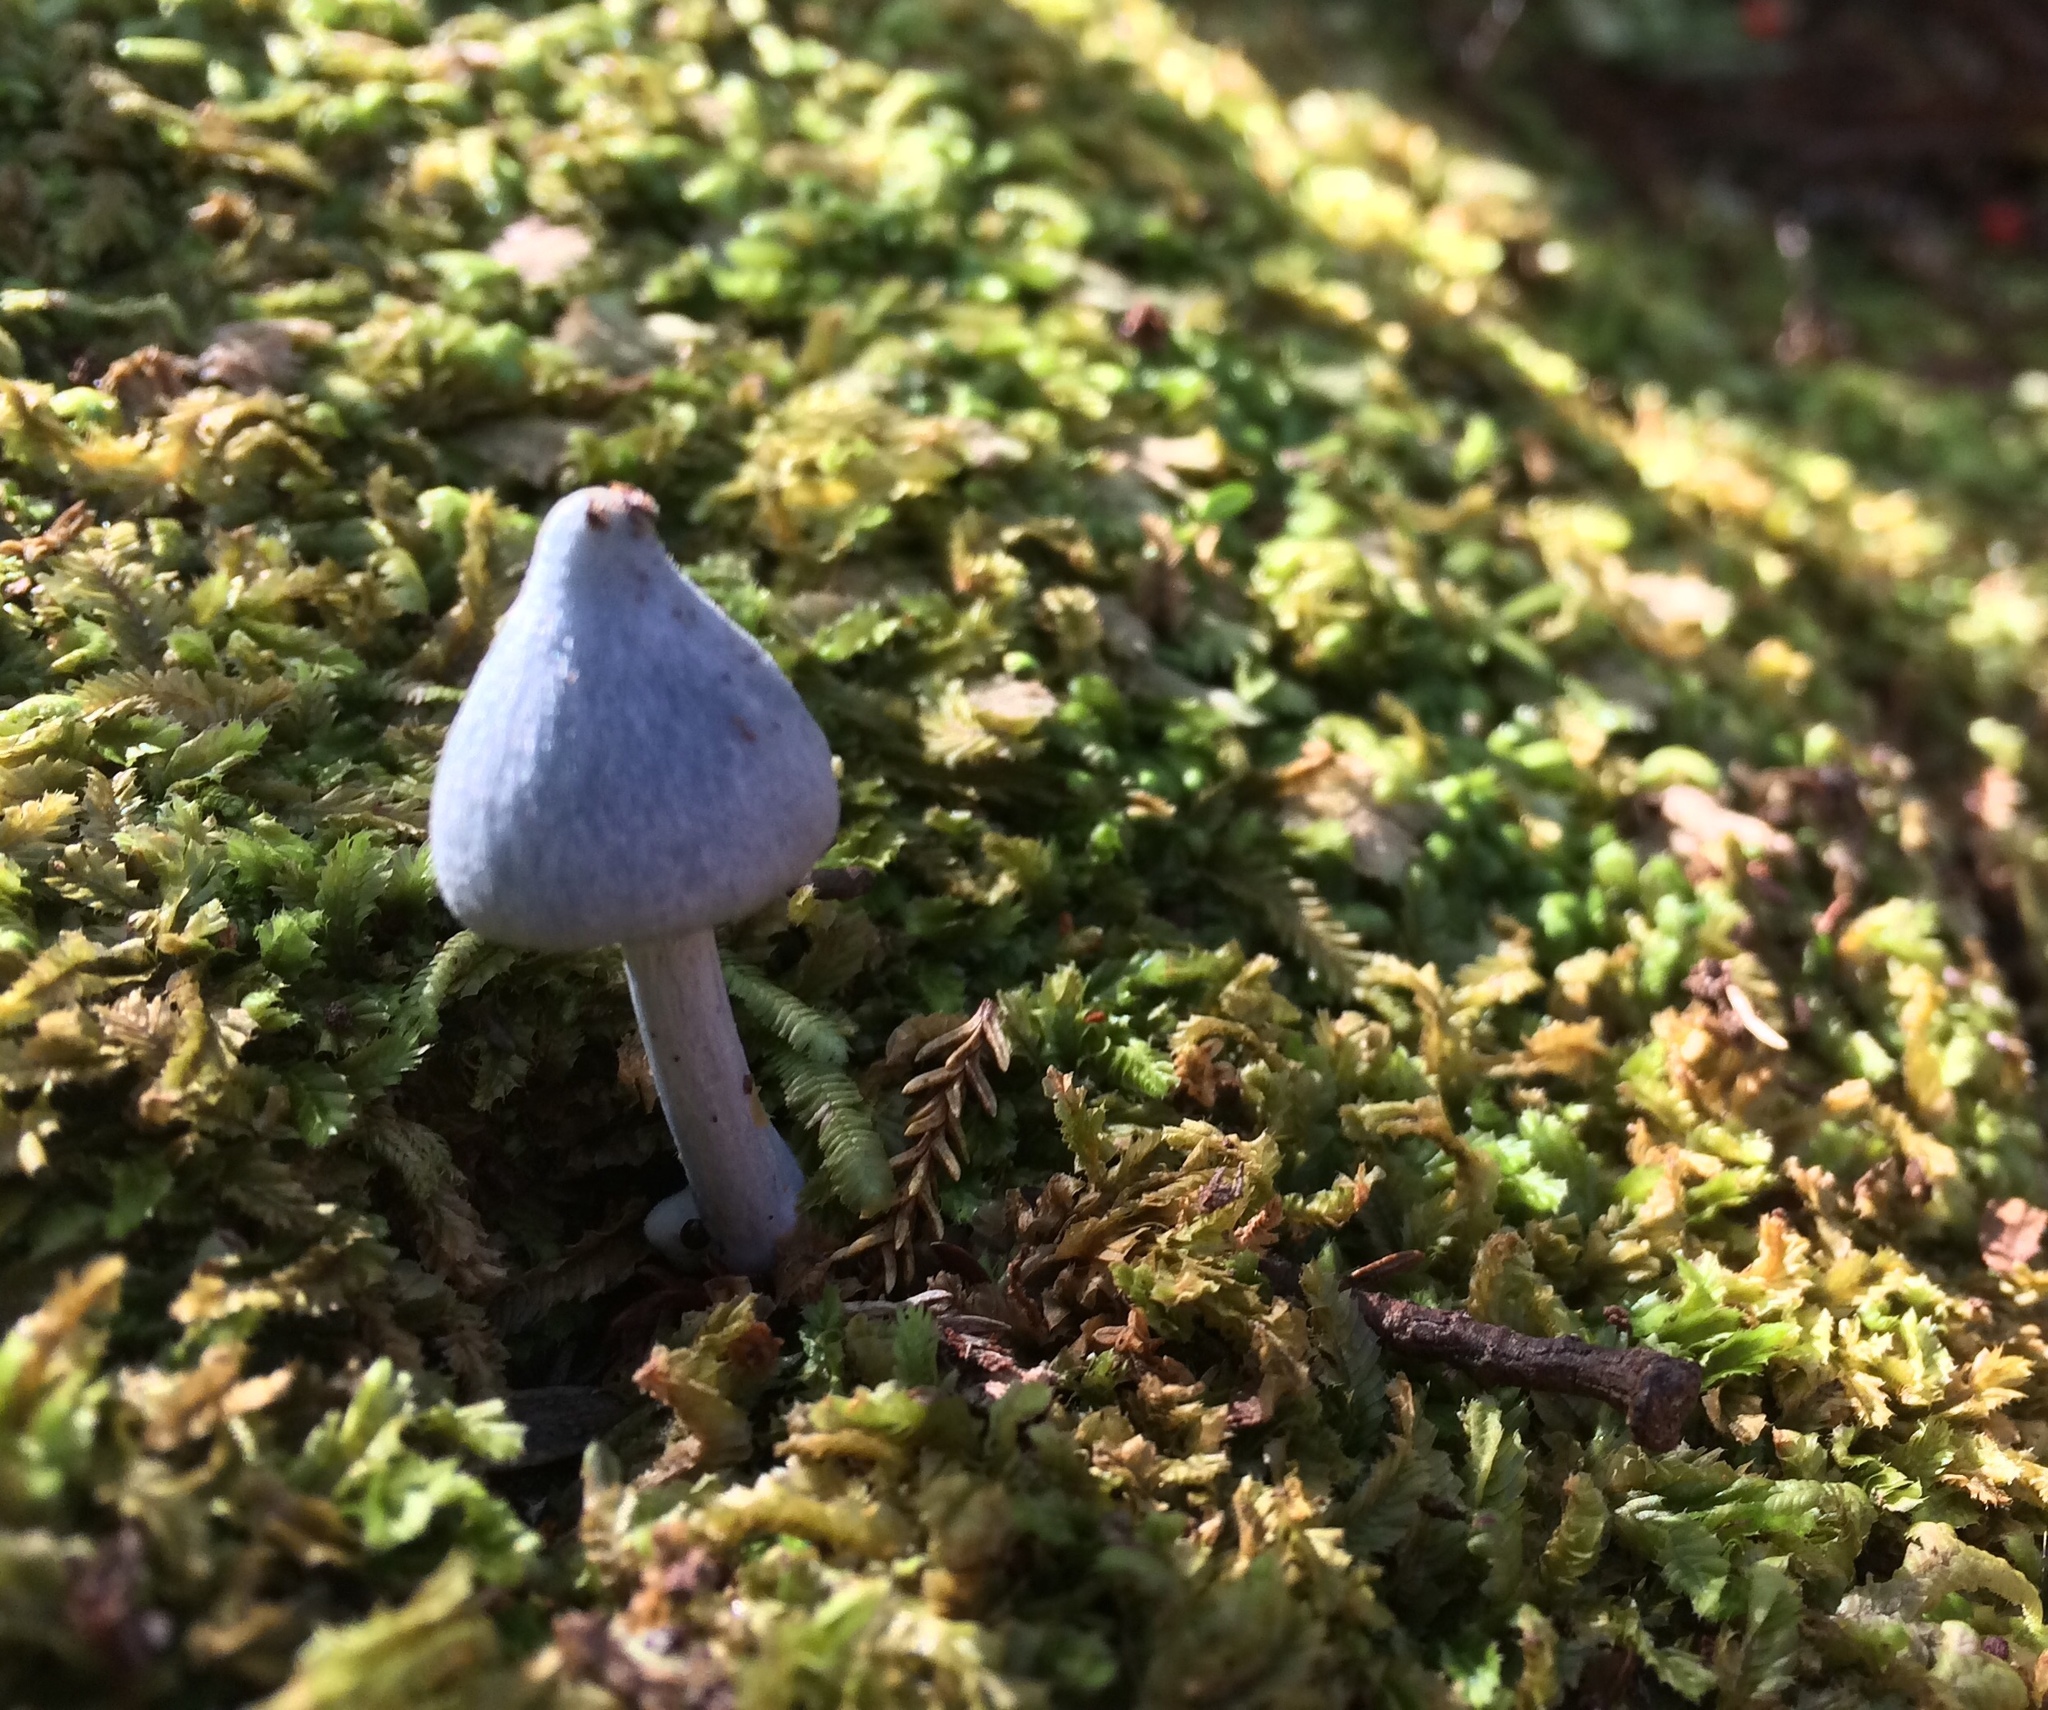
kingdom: Fungi
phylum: Basidiomycota
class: Agaricomycetes
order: Agaricales
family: Entolomataceae
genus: Entoloma
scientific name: Entoloma hochstetteri
